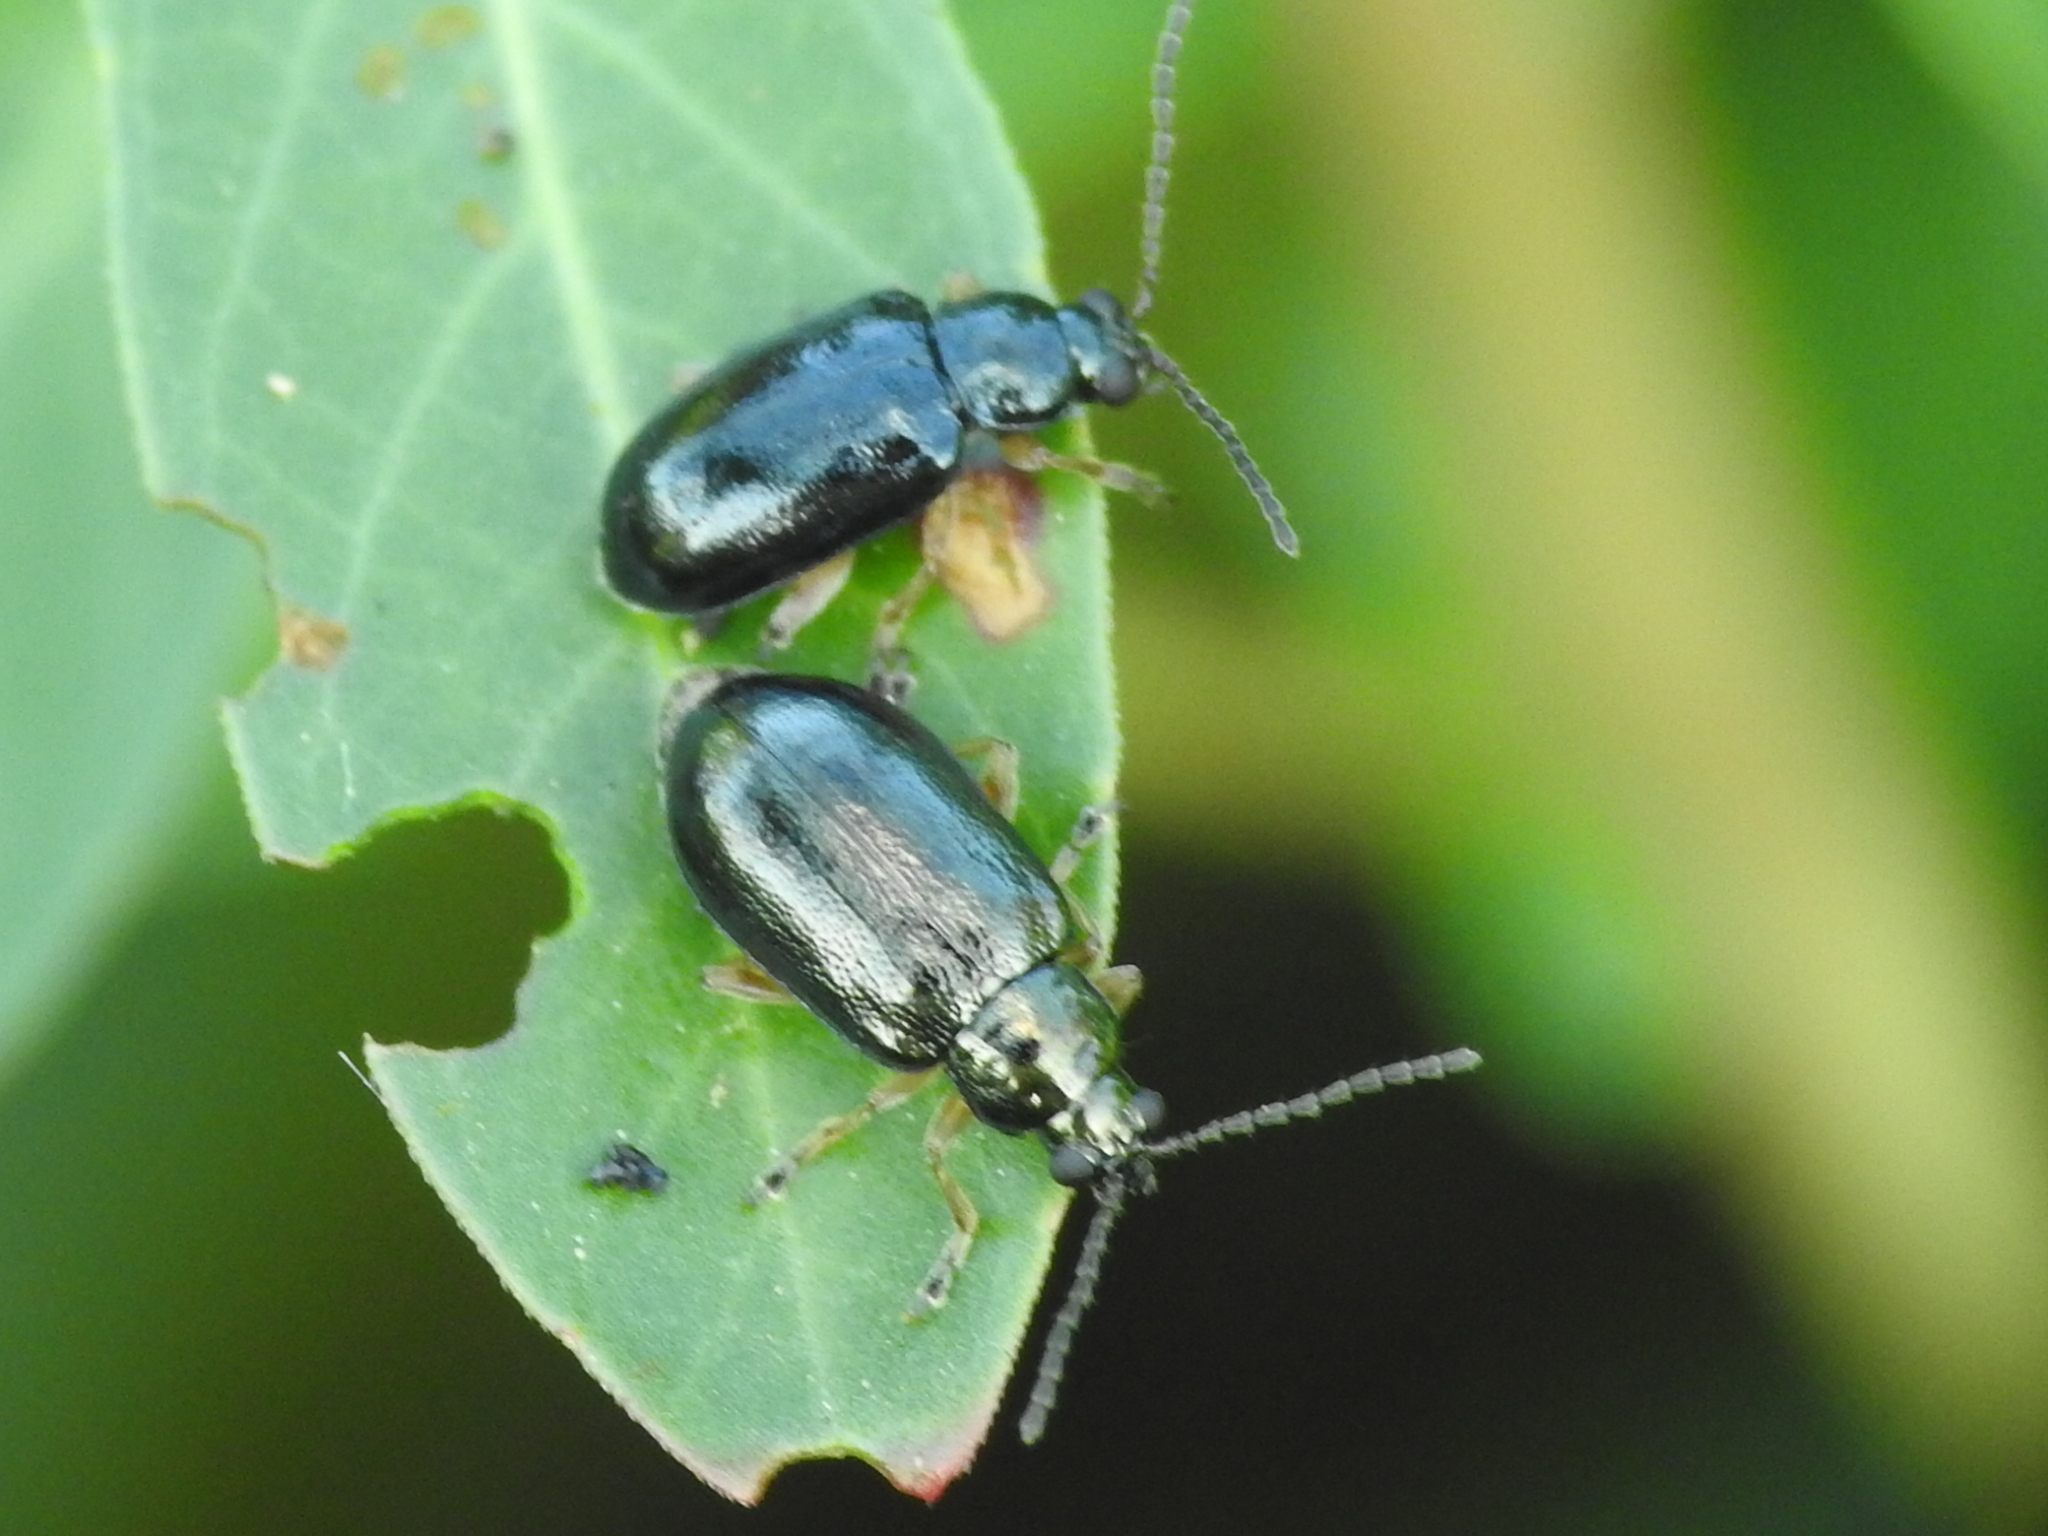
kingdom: Animalia
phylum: Arthropoda
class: Insecta
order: Coleoptera
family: Chrysomelidae
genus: Lysathia
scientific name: Lysathia ludoviciana
